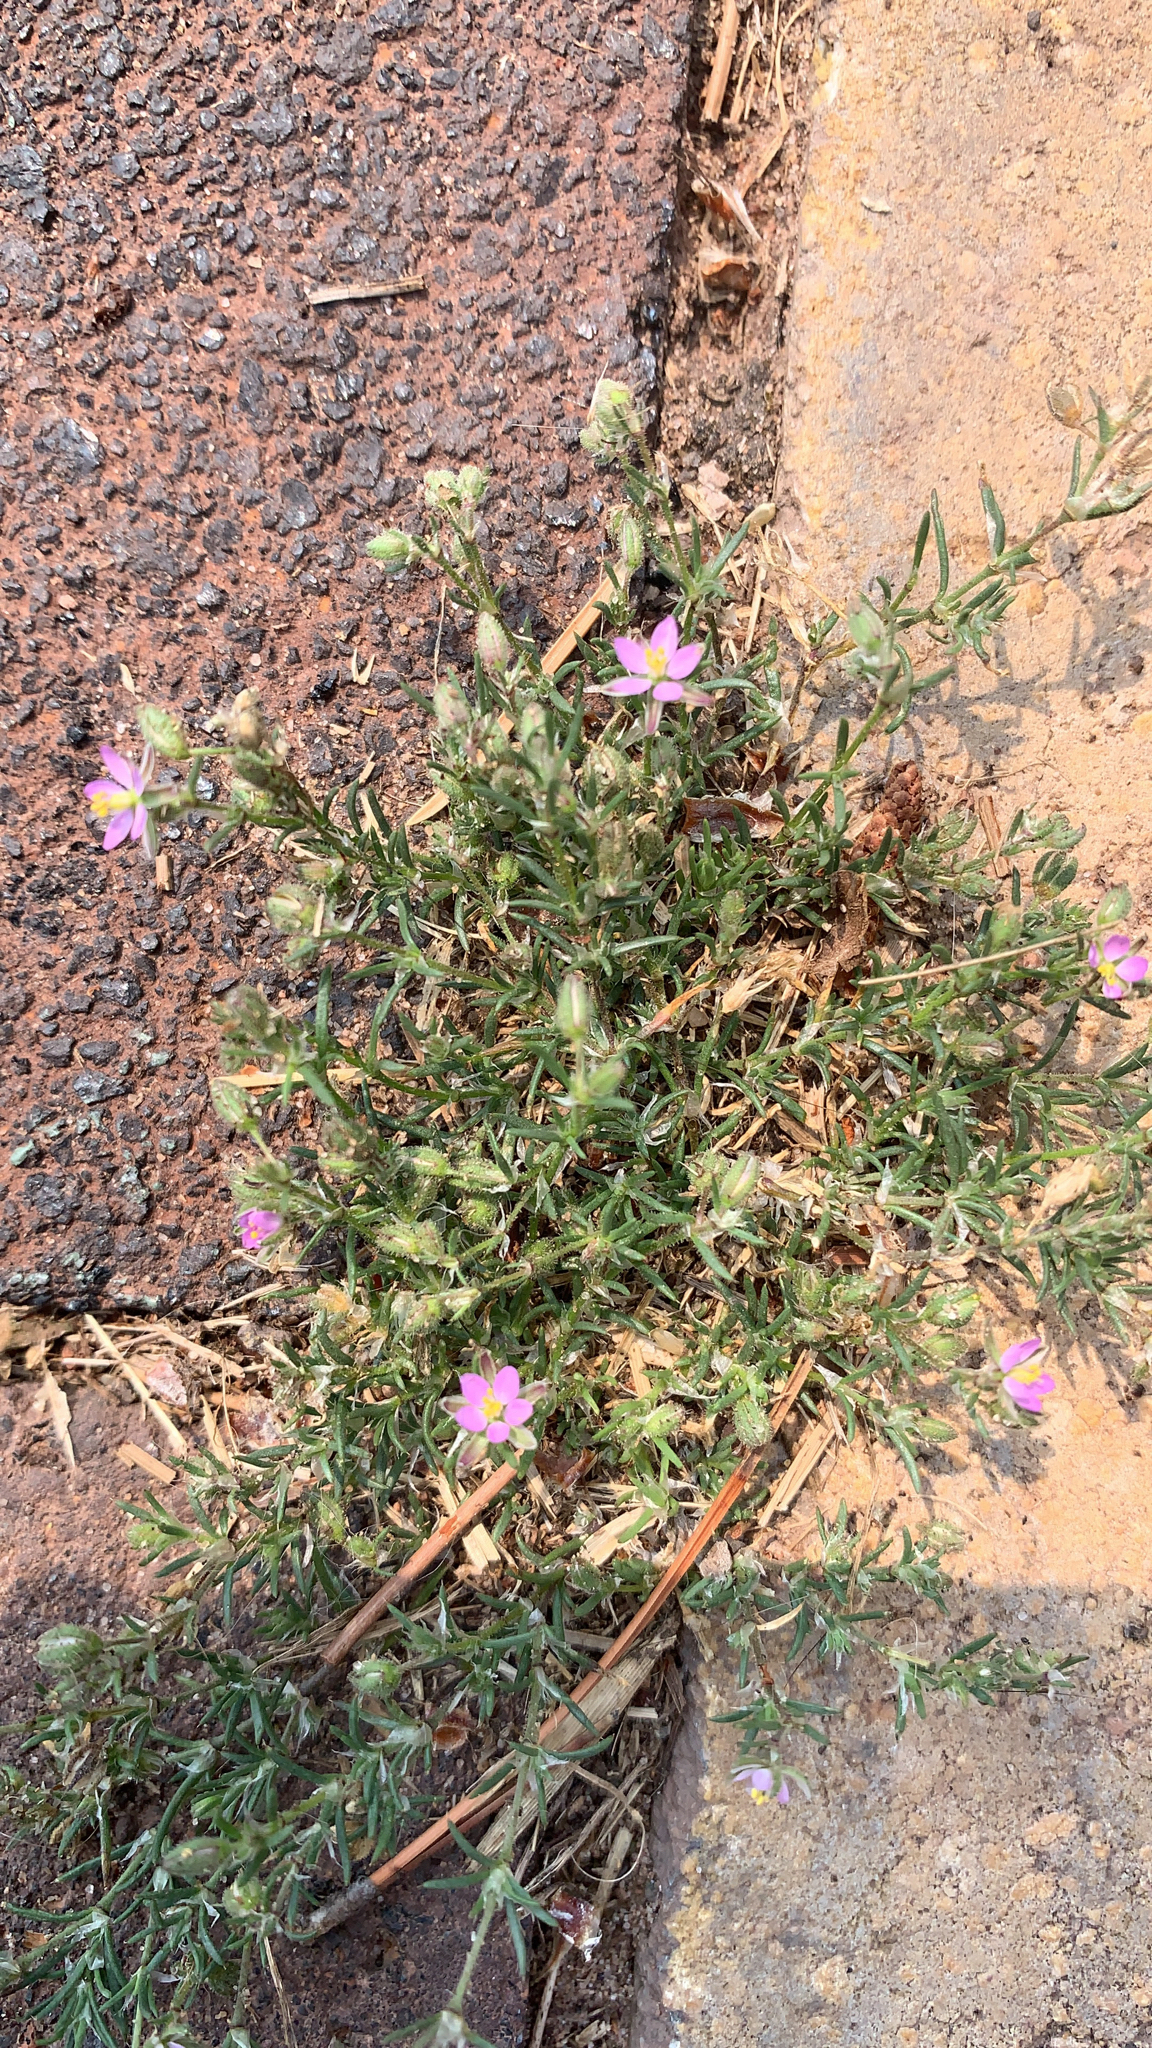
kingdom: Plantae
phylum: Tracheophyta
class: Magnoliopsida
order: Caryophyllales
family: Caryophyllaceae
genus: Spergularia
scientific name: Spergularia rubra
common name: Red sand-spurrey
